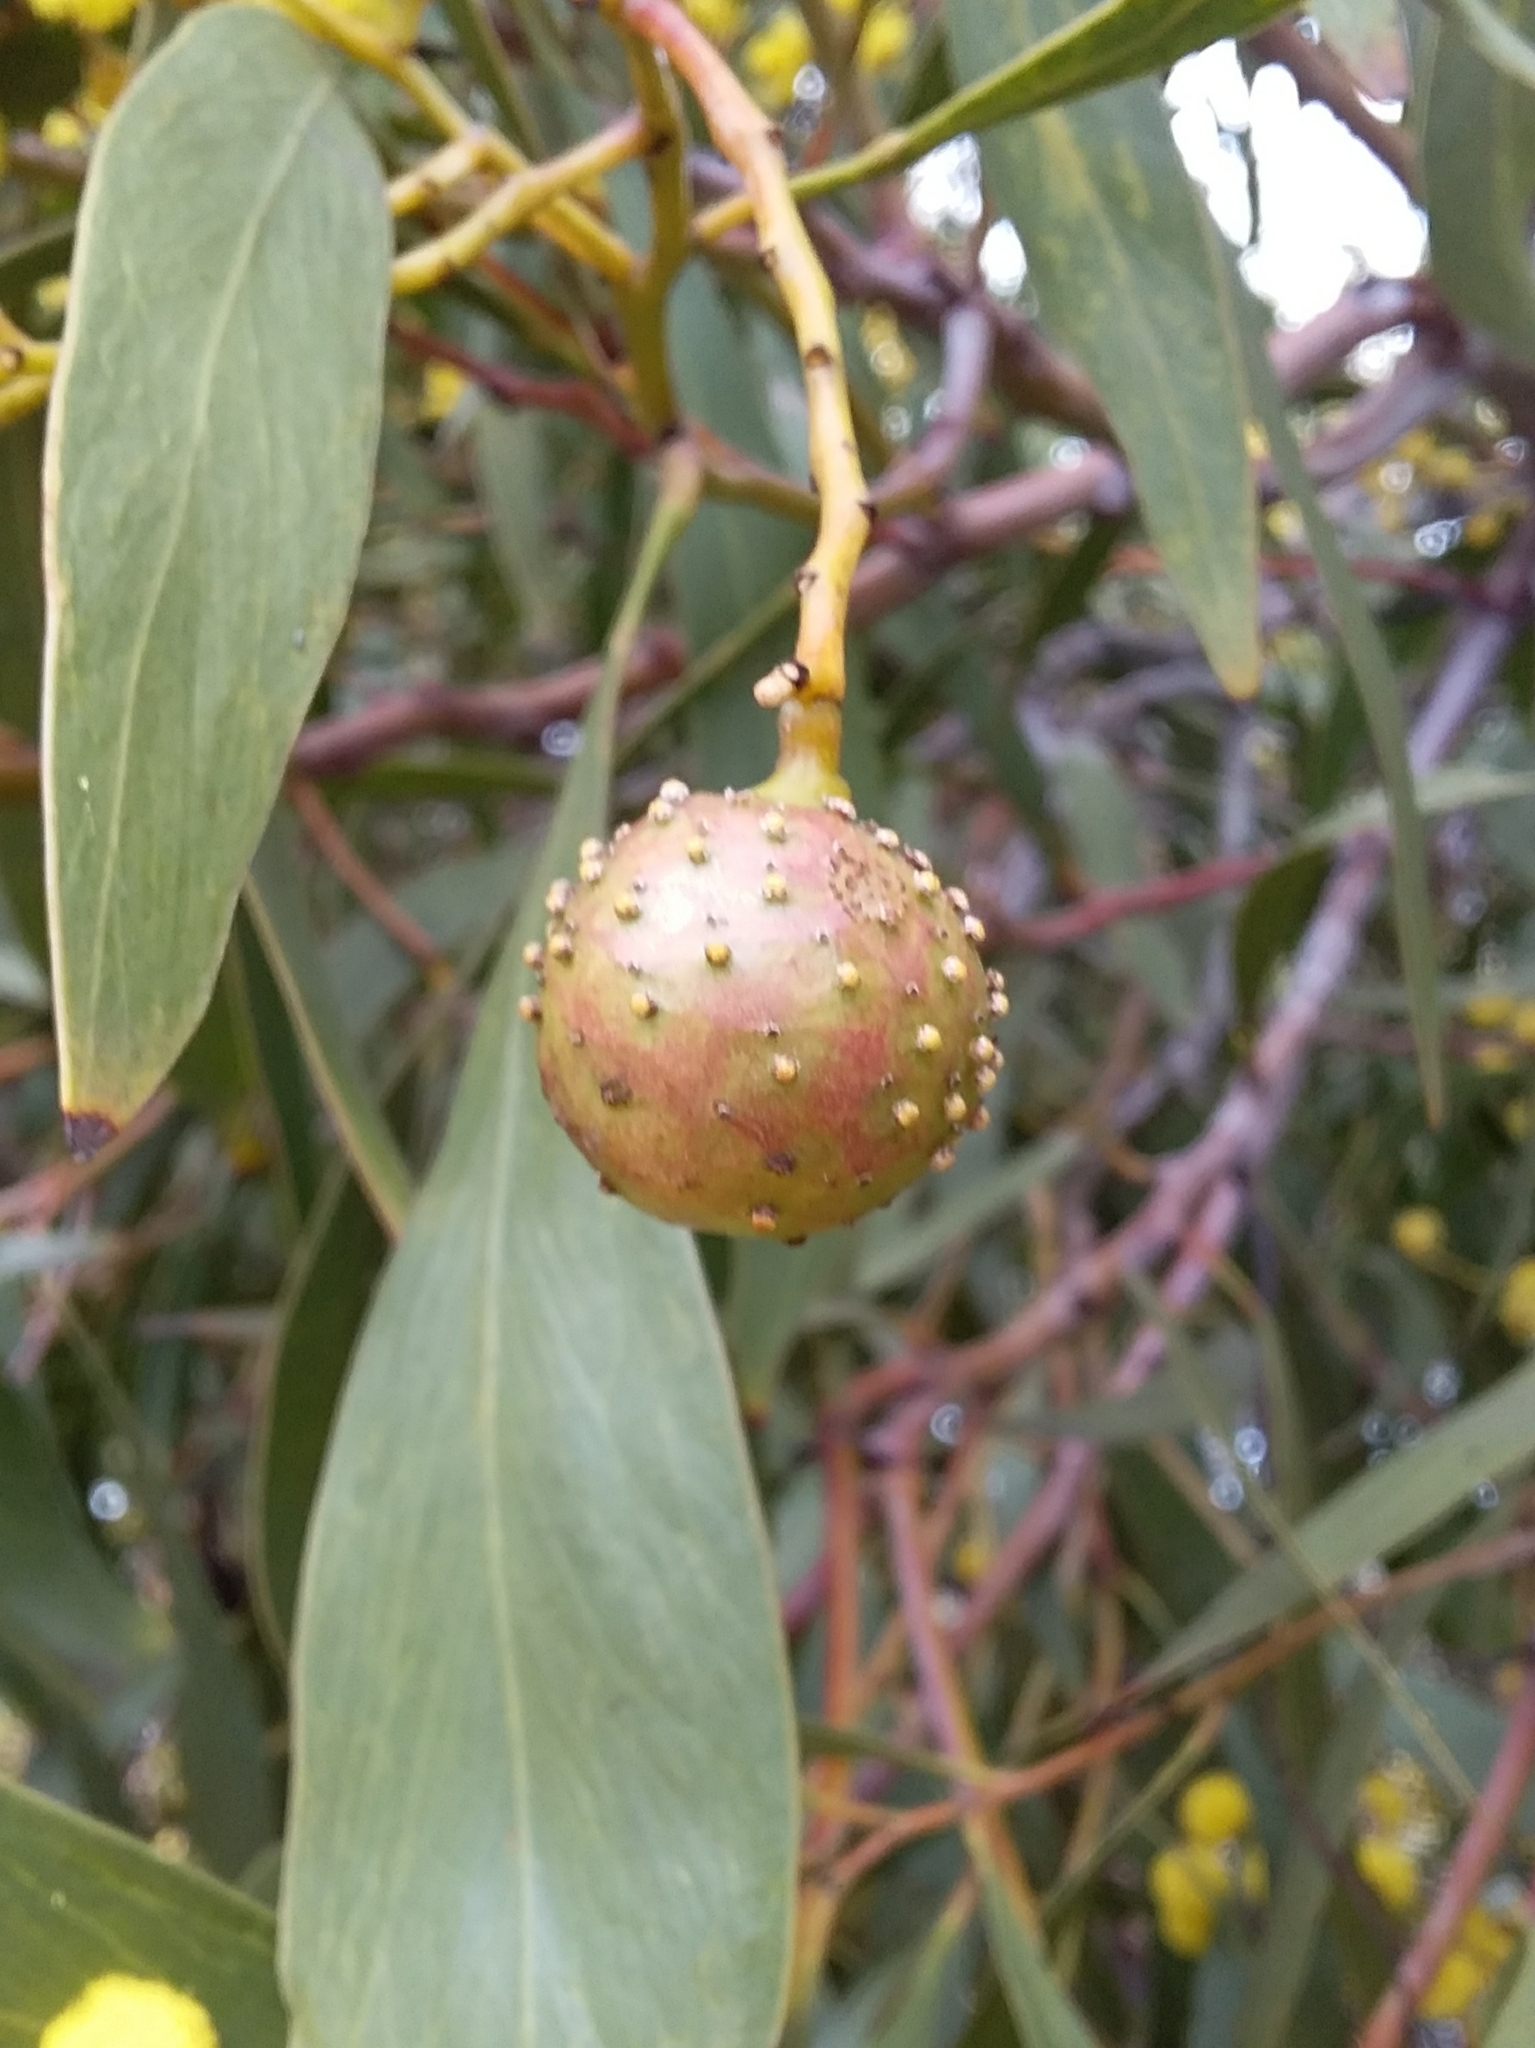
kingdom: Animalia
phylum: Arthropoda
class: Insecta
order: Hymenoptera
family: Pteromalidae
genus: Trichilogaster
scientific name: Trichilogaster signiventris
